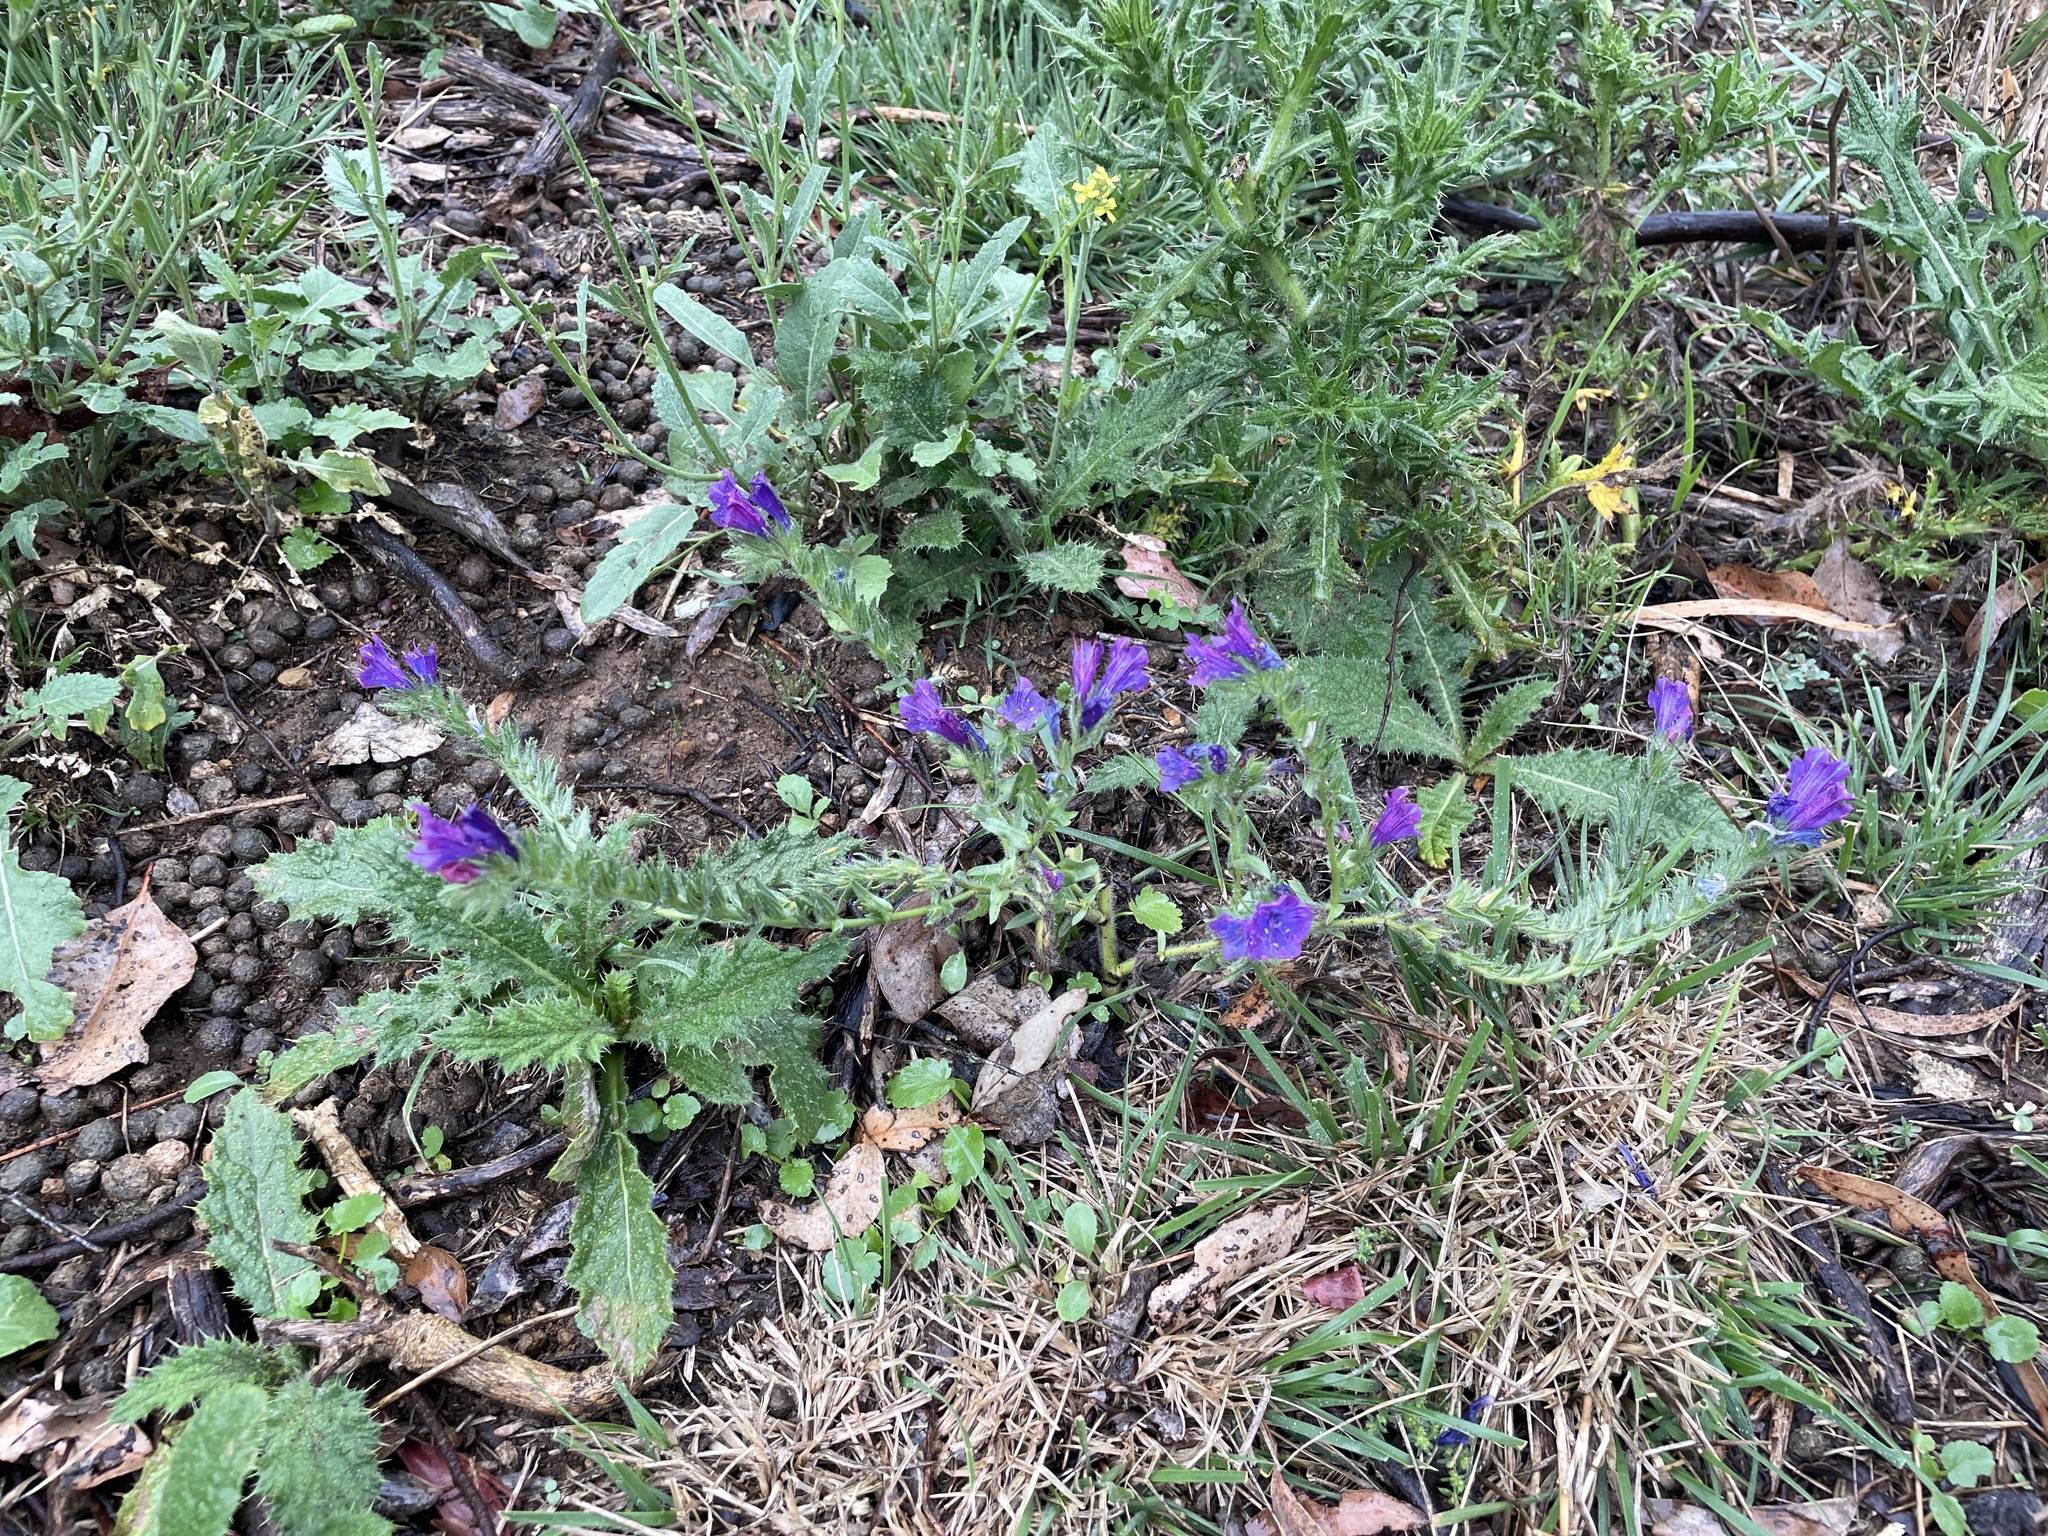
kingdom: Plantae
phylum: Tracheophyta
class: Magnoliopsida
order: Boraginales
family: Boraginaceae
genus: Echium
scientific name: Echium plantagineum
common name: Purple viper's-bugloss
